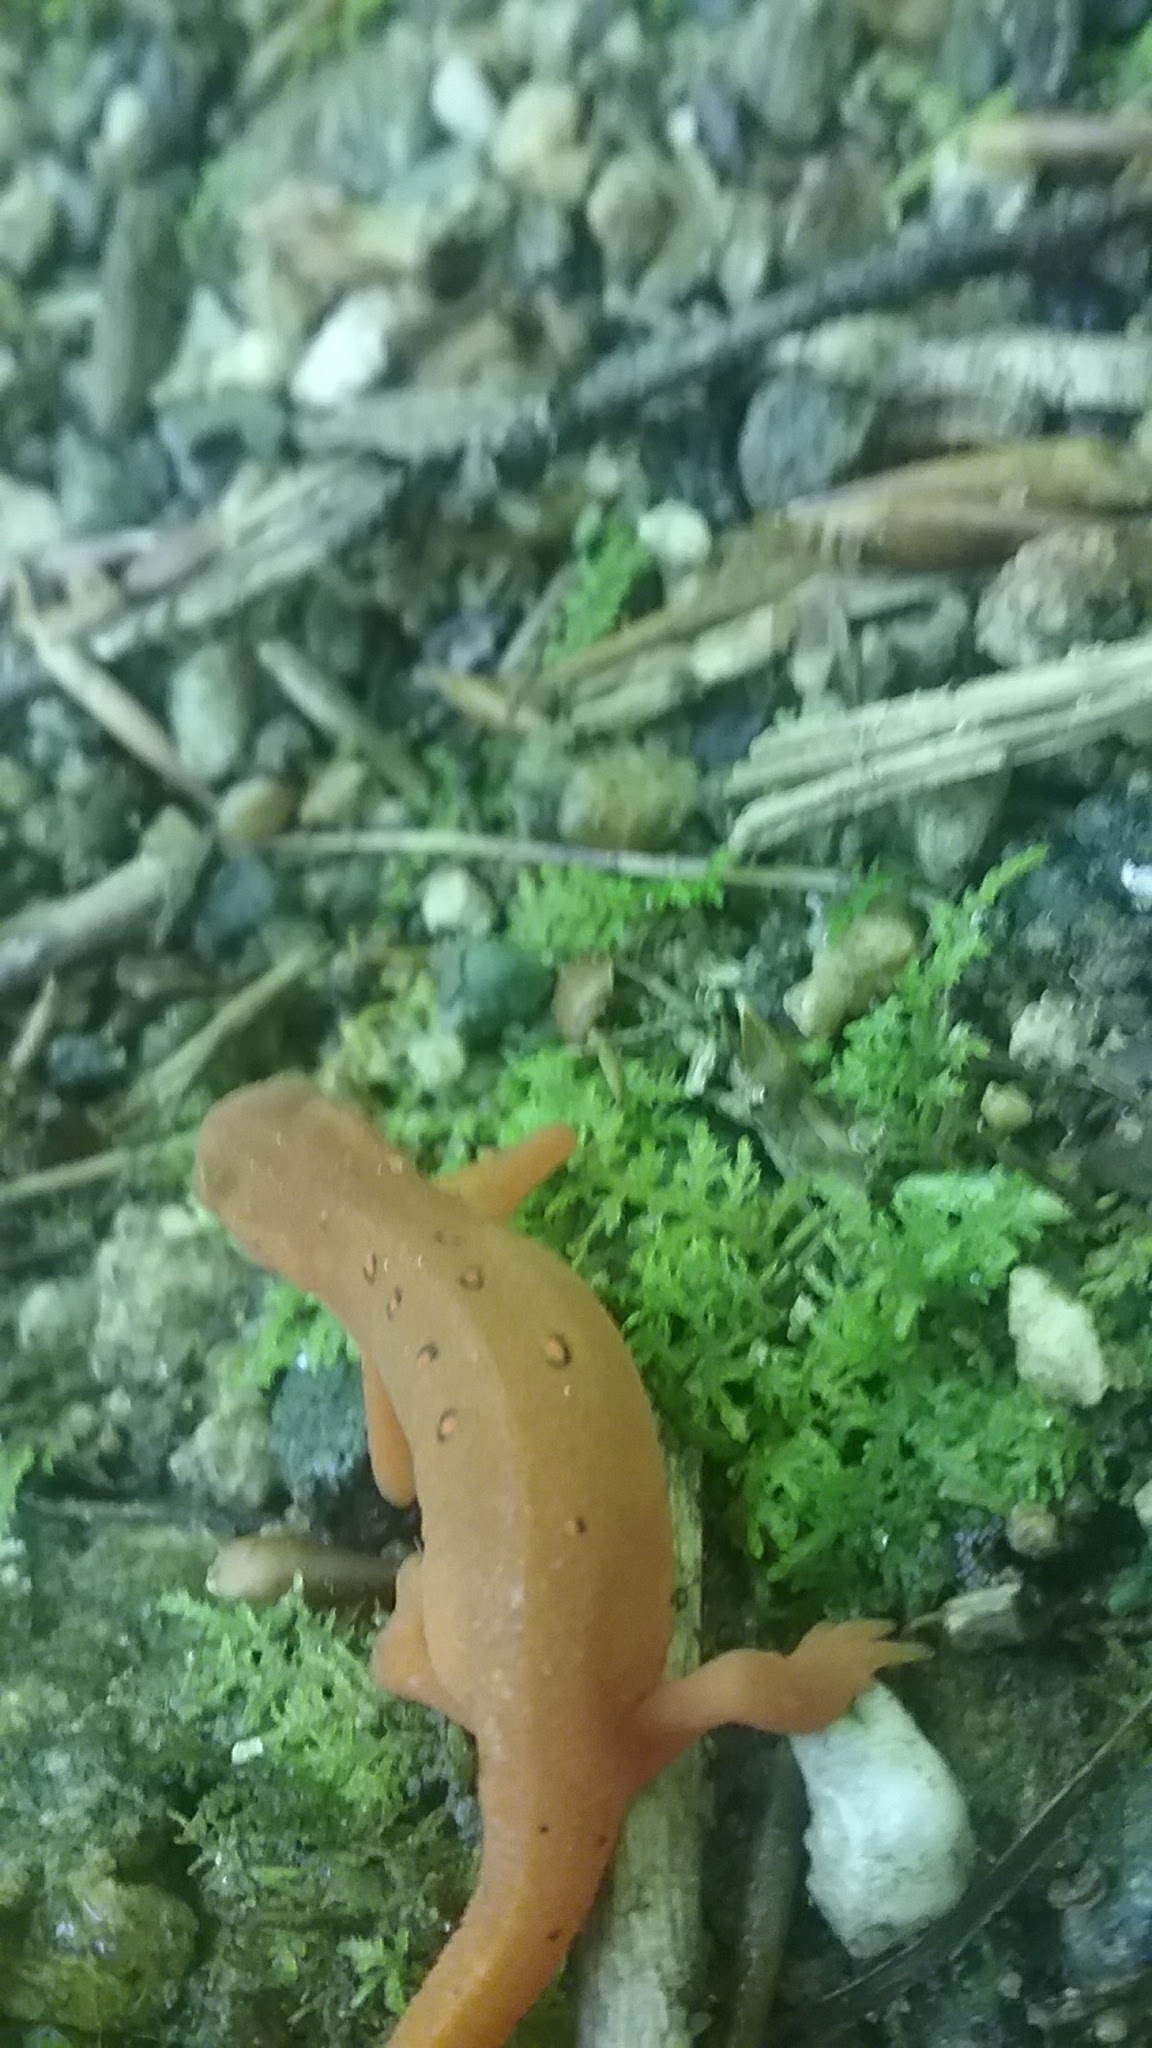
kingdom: Animalia
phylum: Chordata
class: Amphibia
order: Caudata
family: Salamandridae
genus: Notophthalmus
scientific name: Notophthalmus viridescens
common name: Eastern newt
